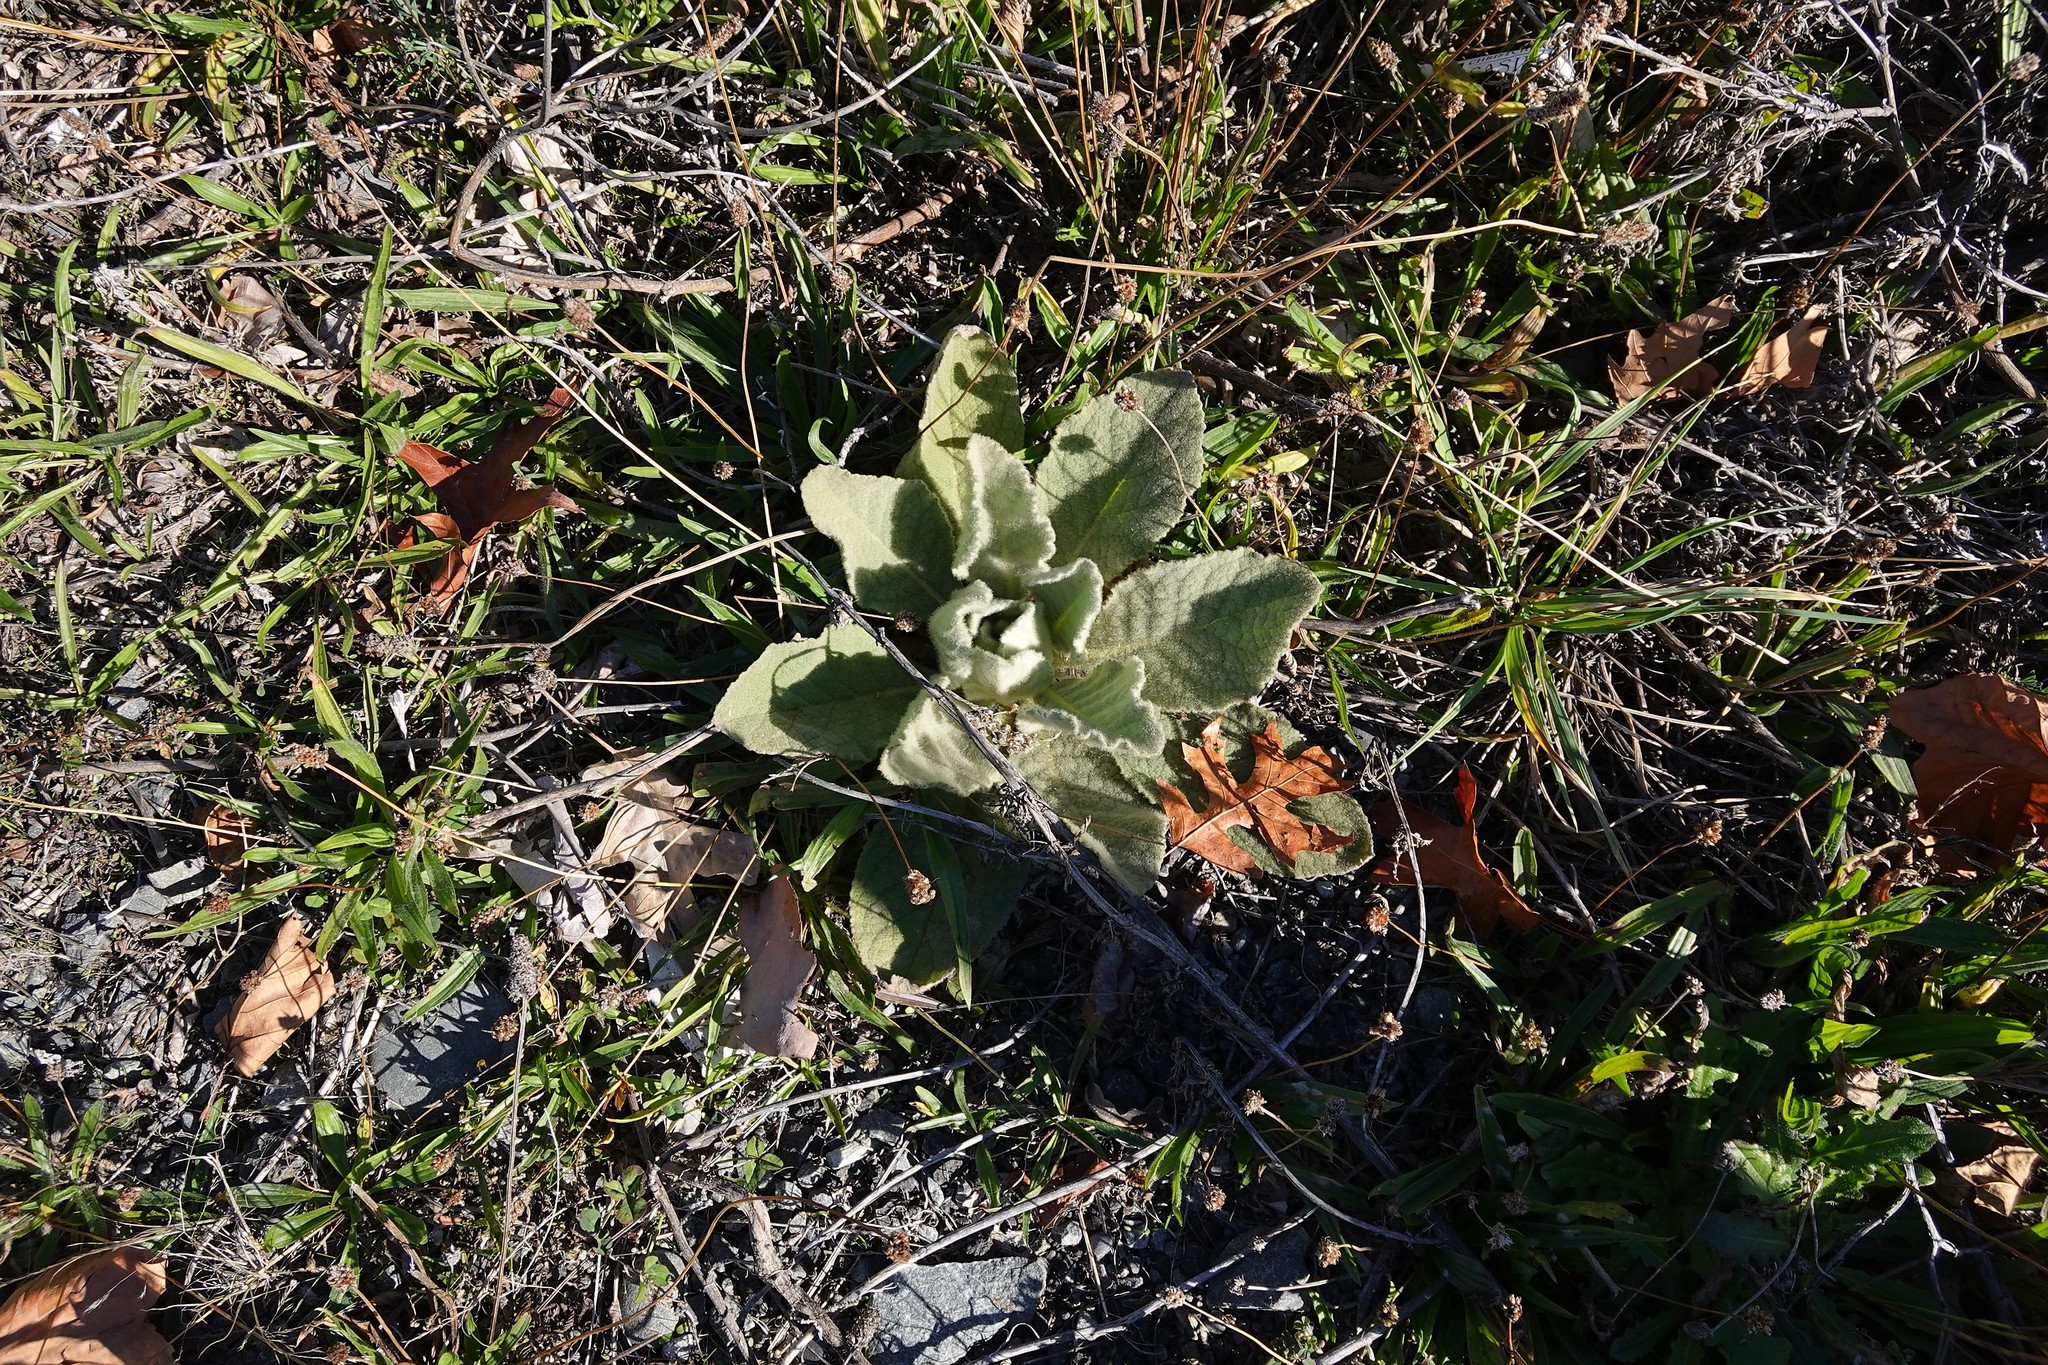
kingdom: Plantae
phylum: Tracheophyta
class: Magnoliopsida
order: Lamiales
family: Scrophulariaceae
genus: Verbascum
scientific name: Verbascum thapsus
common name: Common mullein
